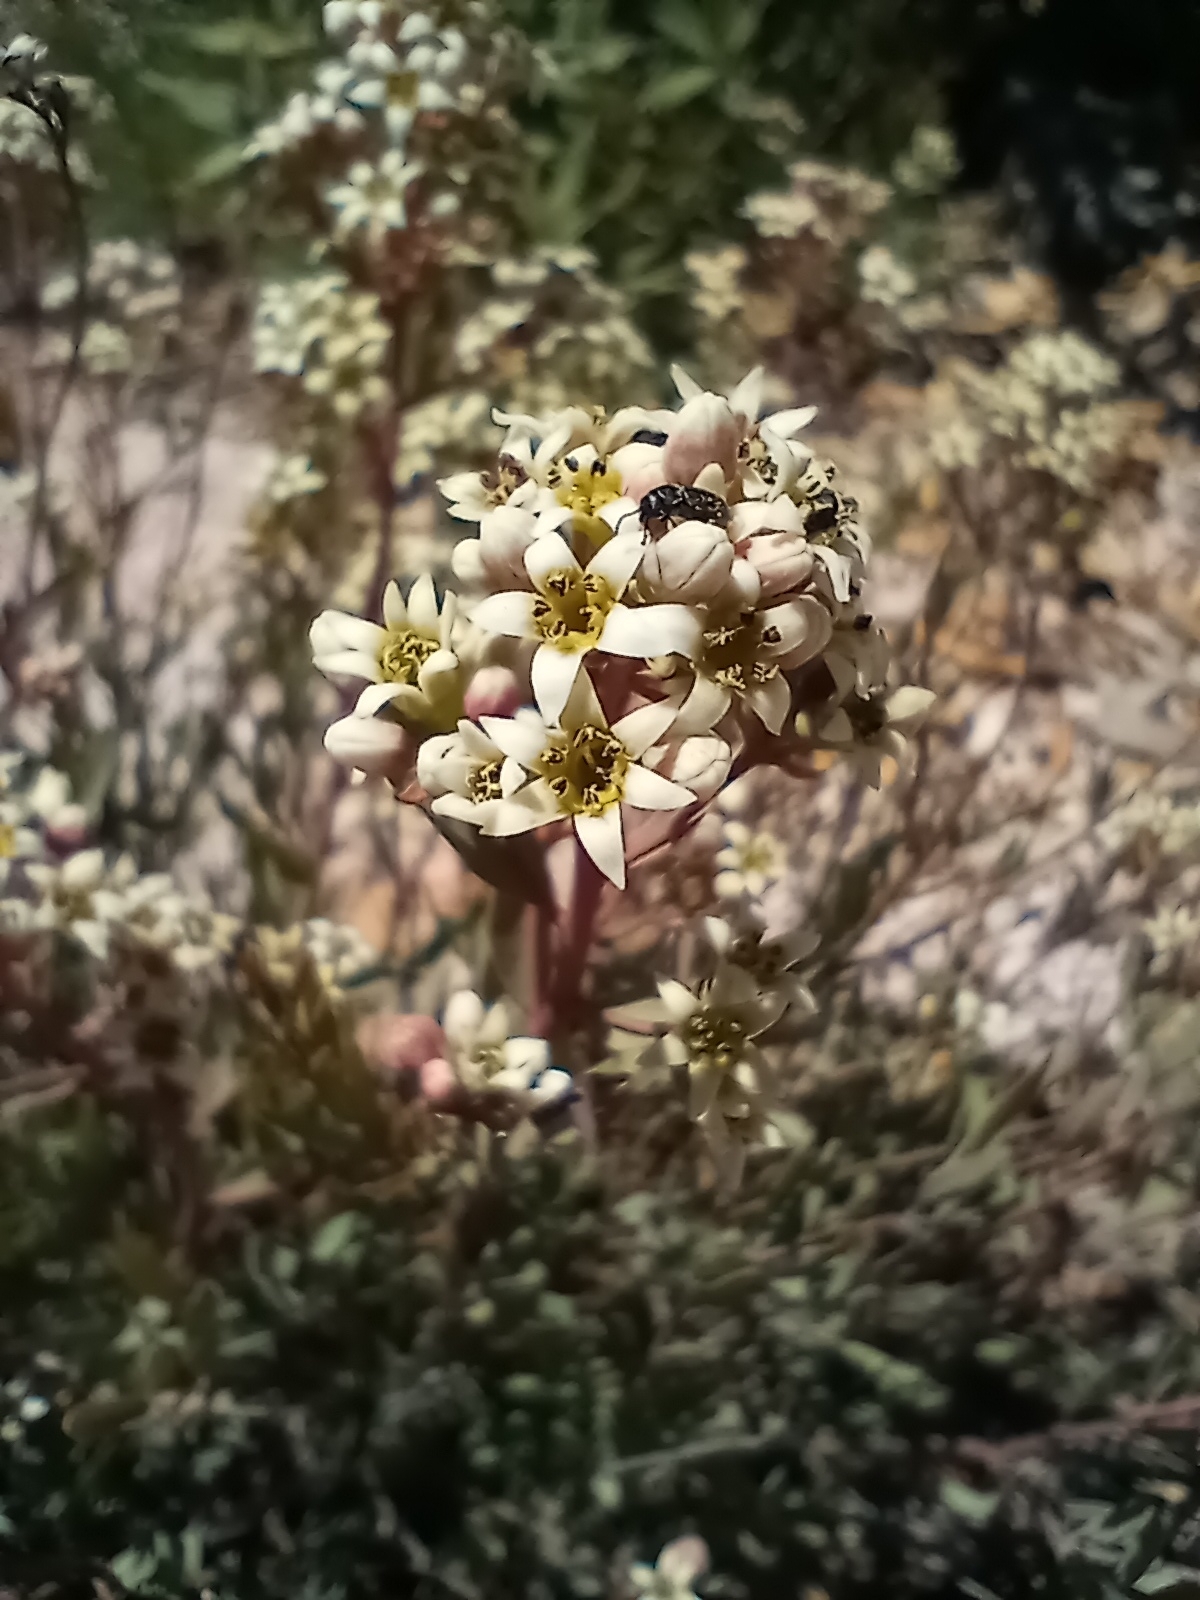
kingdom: Plantae
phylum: Tracheophyta
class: Magnoliopsida
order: Santalales
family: Comandraceae
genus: Comandra
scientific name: Comandra umbellata
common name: Bastard toadflax
